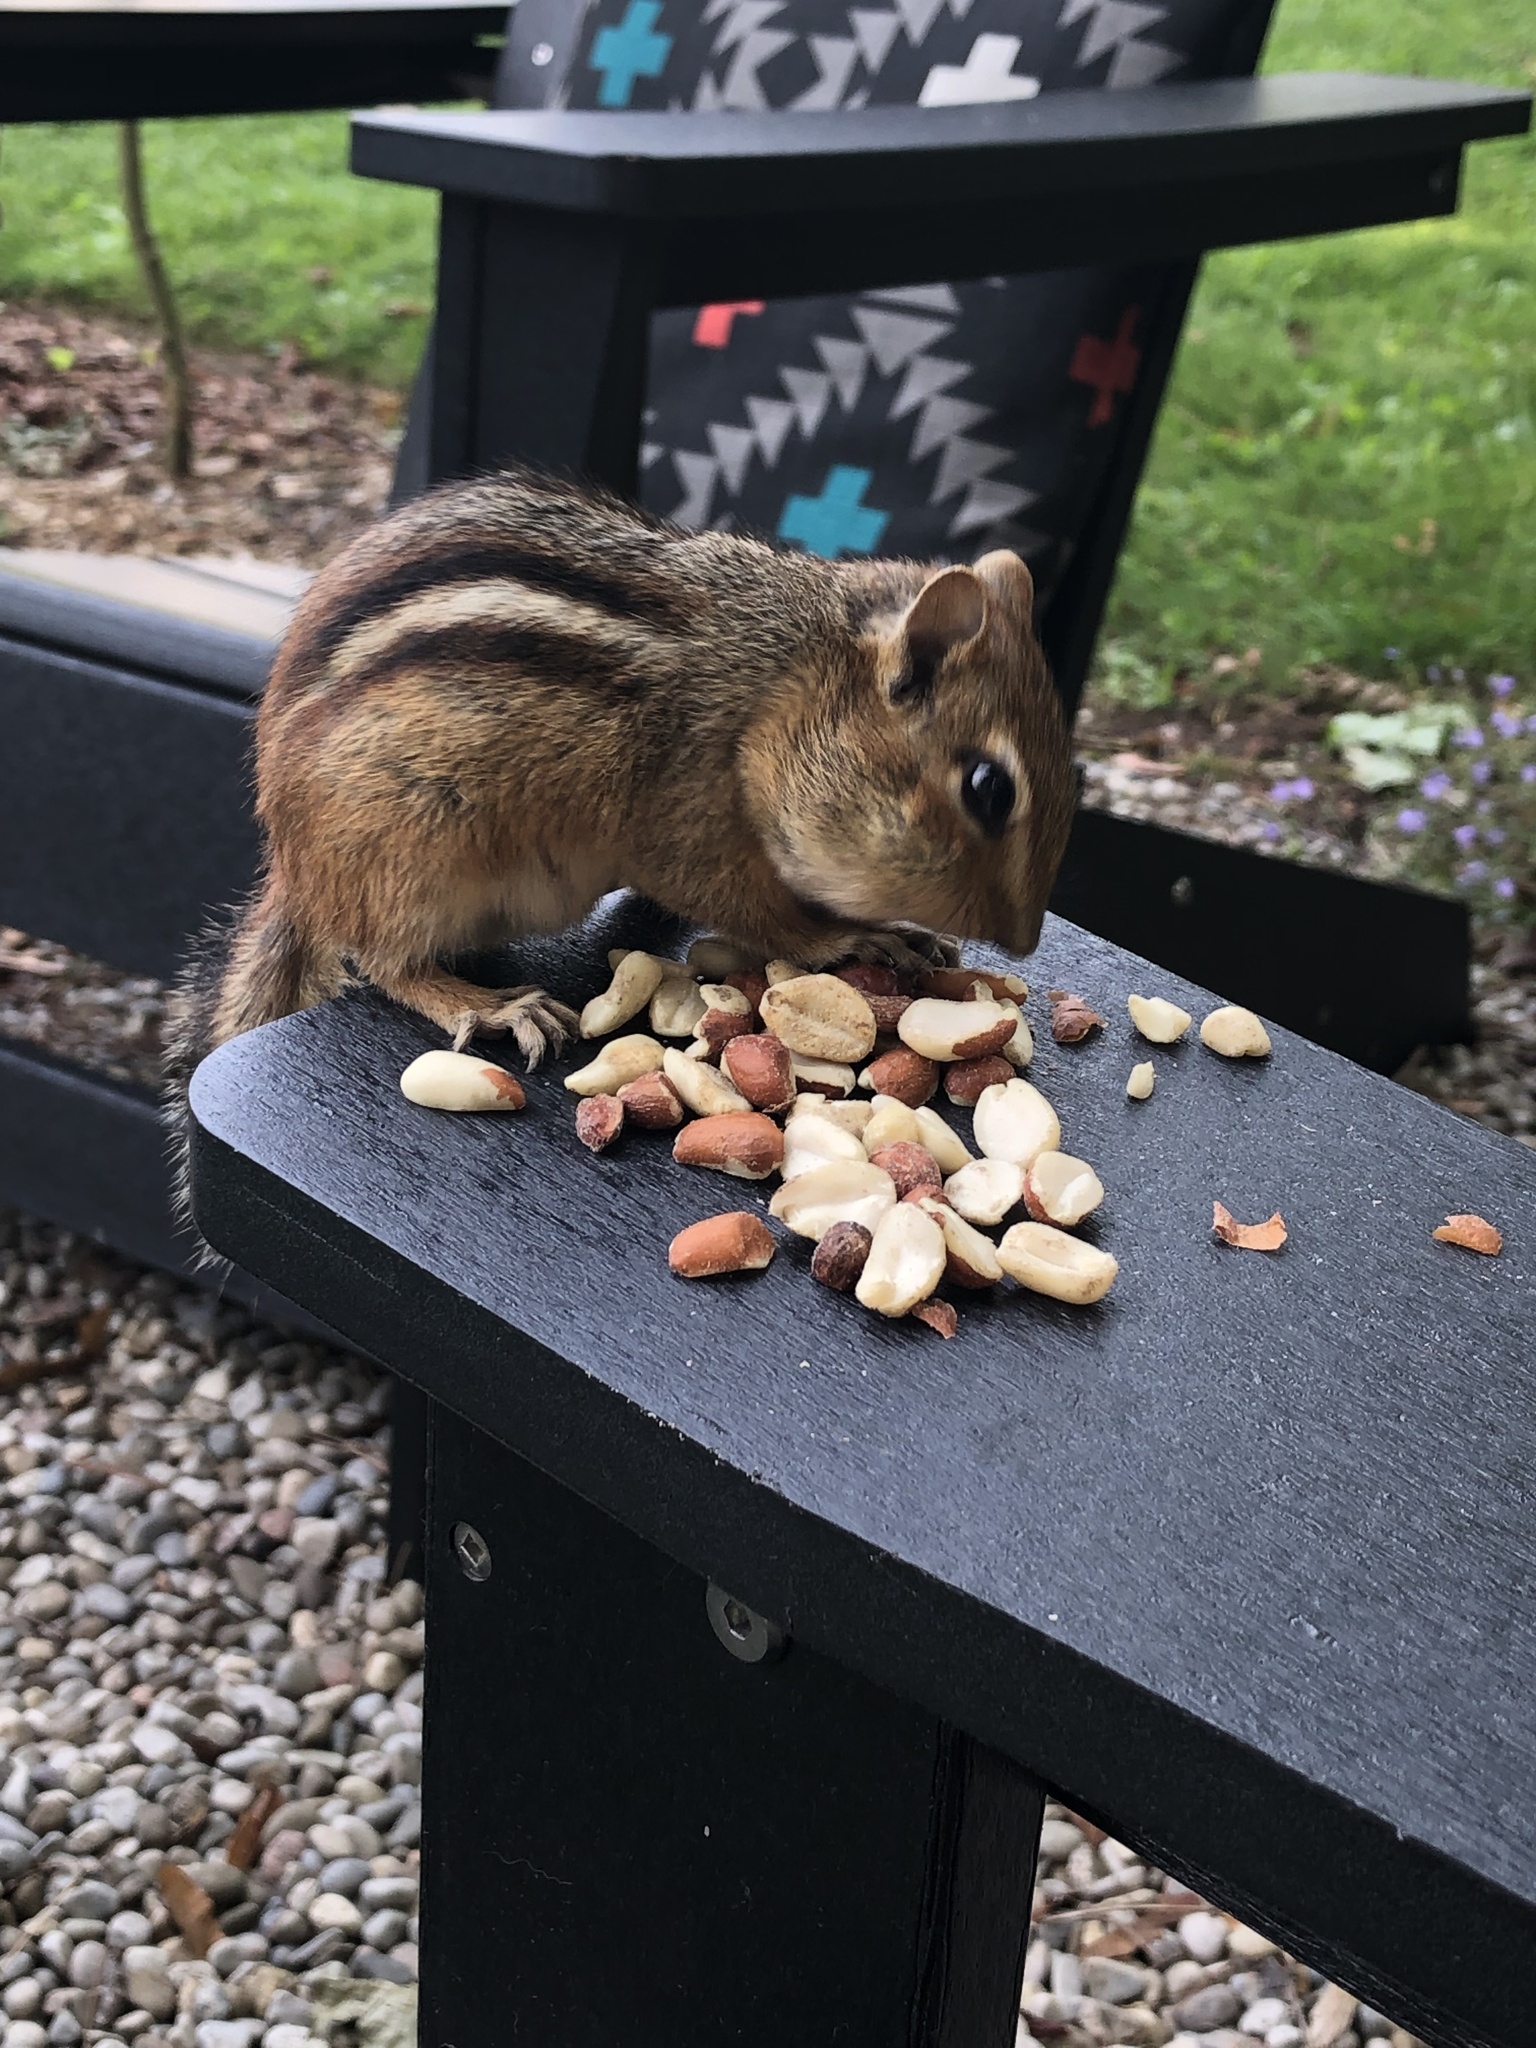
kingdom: Animalia
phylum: Chordata
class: Mammalia
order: Rodentia
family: Sciuridae
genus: Tamias
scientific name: Tamias striatus
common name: Eastern chipmunk
